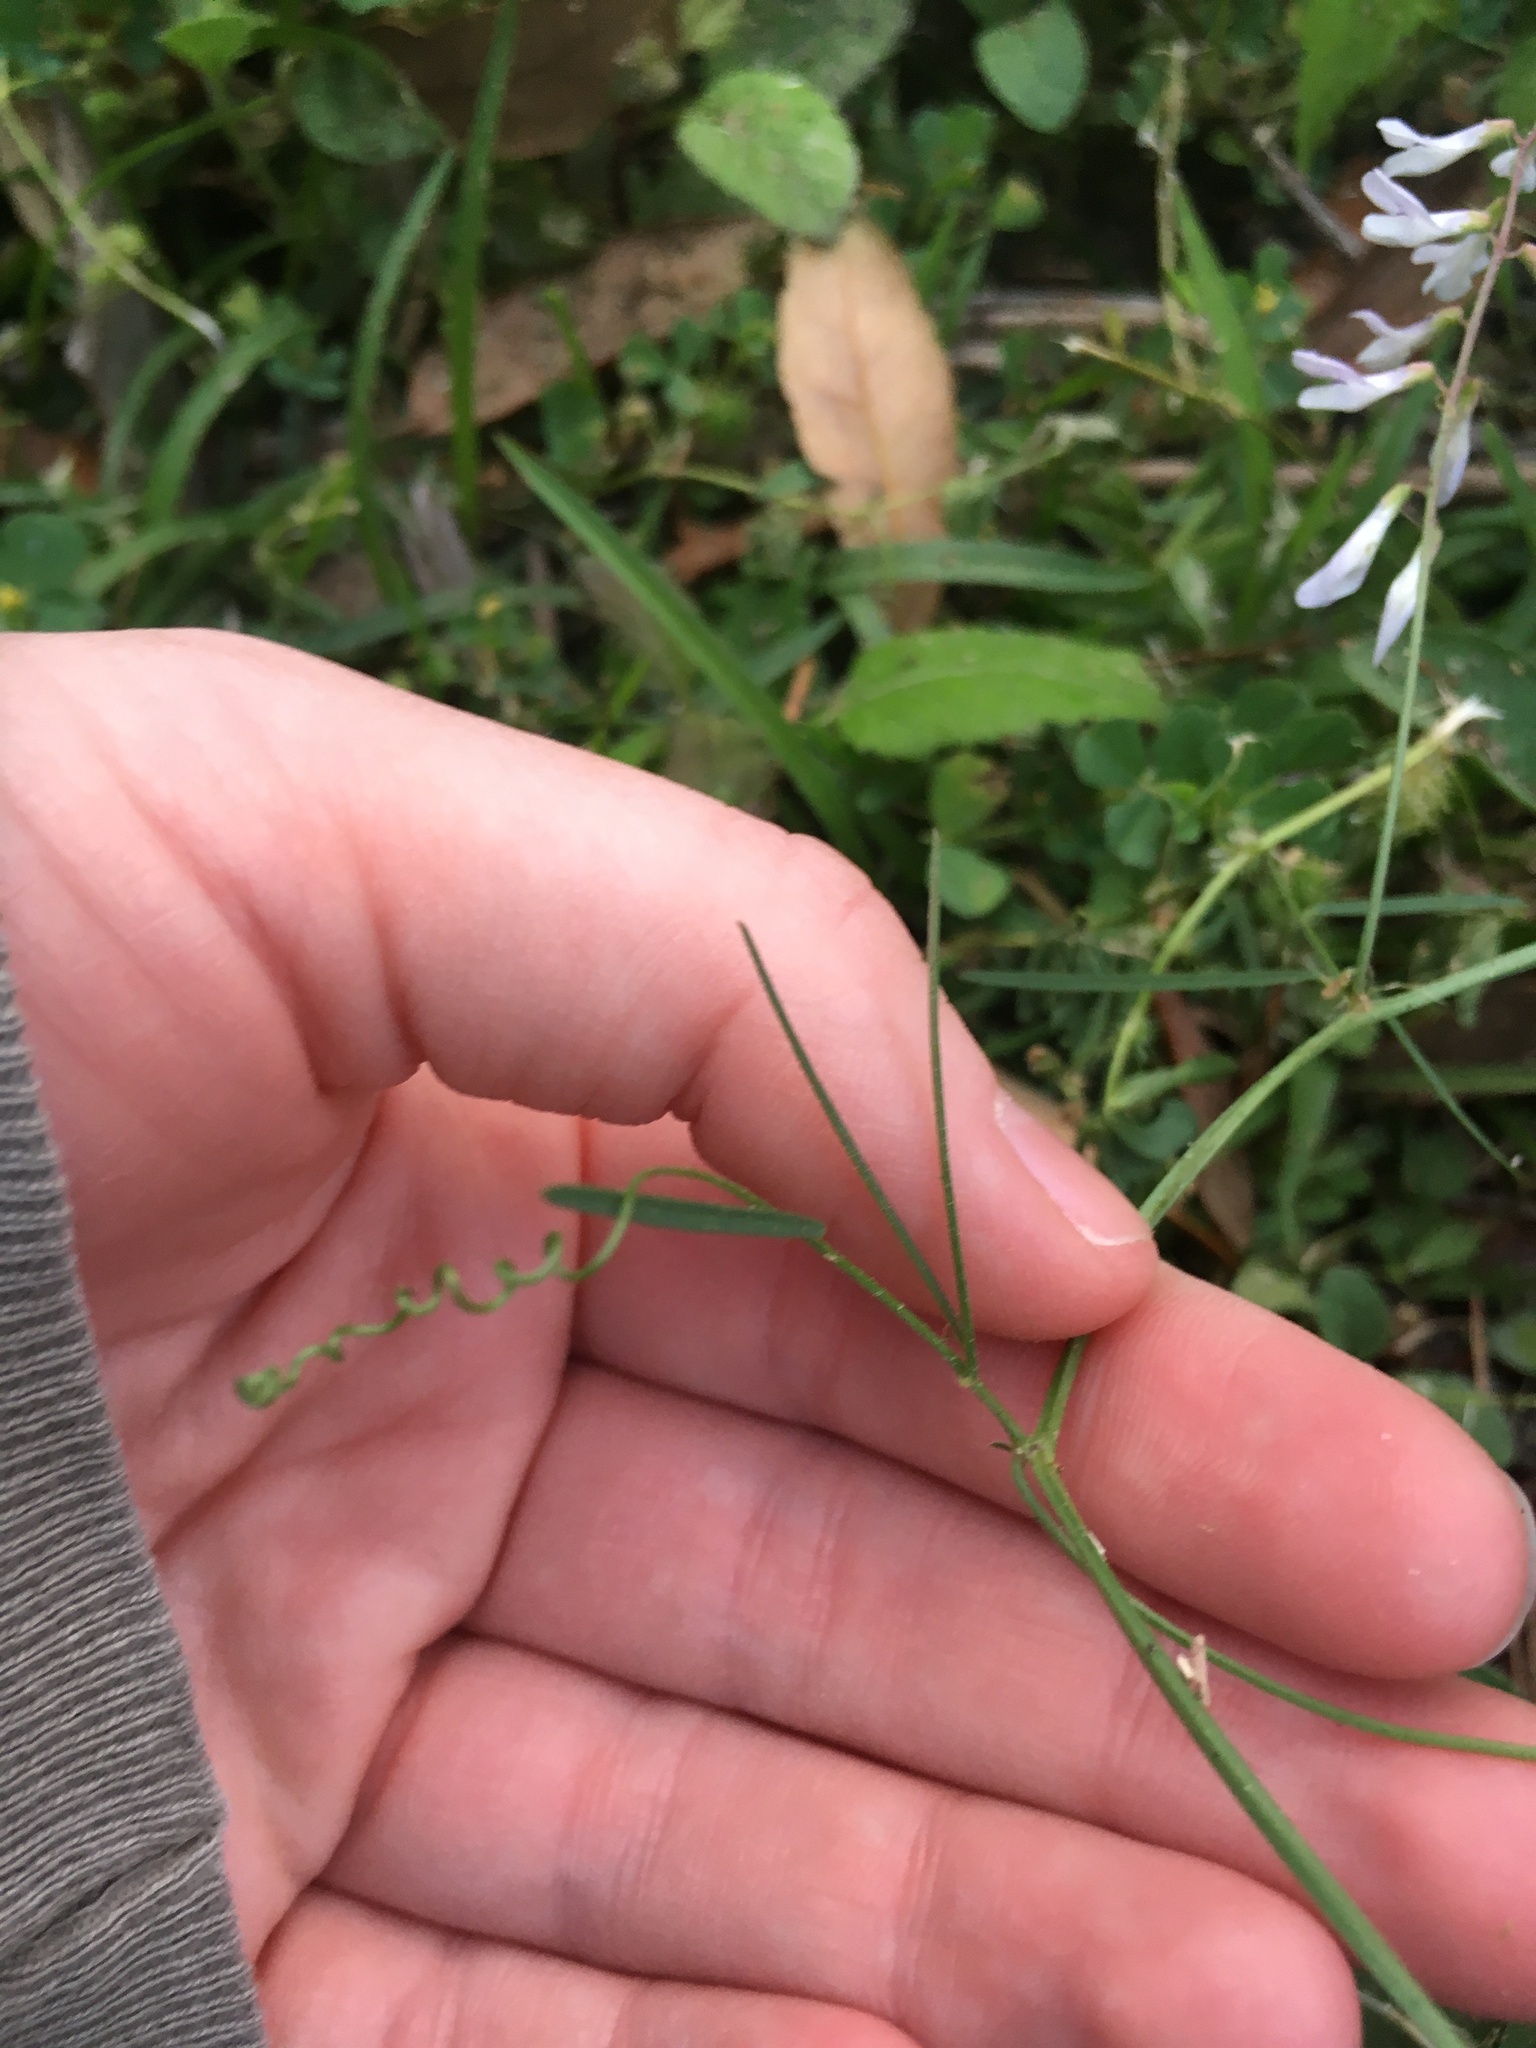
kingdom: Plantae
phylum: Tracheophyta
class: Magnoliopsida
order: Fabales
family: Fabaceae
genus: Vicia
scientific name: Vicia acutifolia
